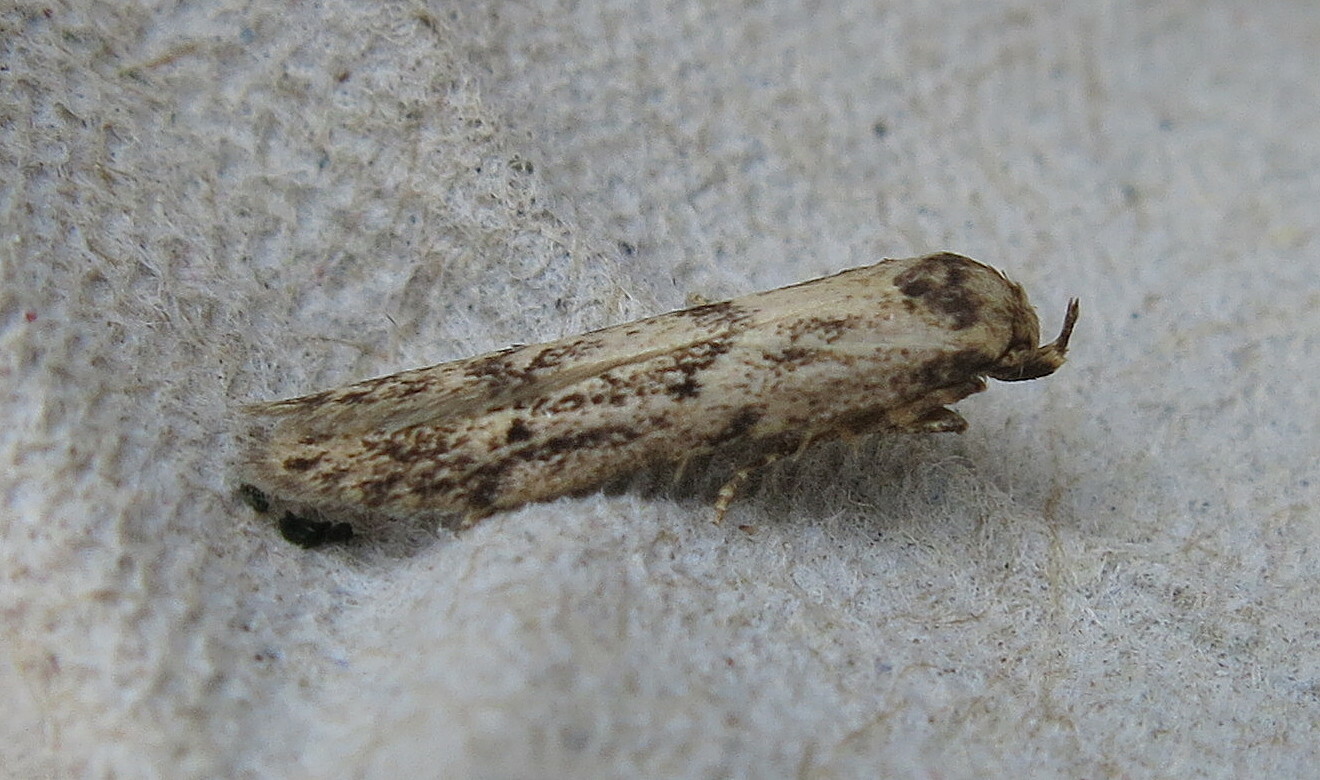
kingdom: Animalia
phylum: Arthropoda
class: Insecta
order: Lepidoptera
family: Blastobasidae
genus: Blastobasis
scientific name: Blastobasis adustella
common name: Dingy dowd
